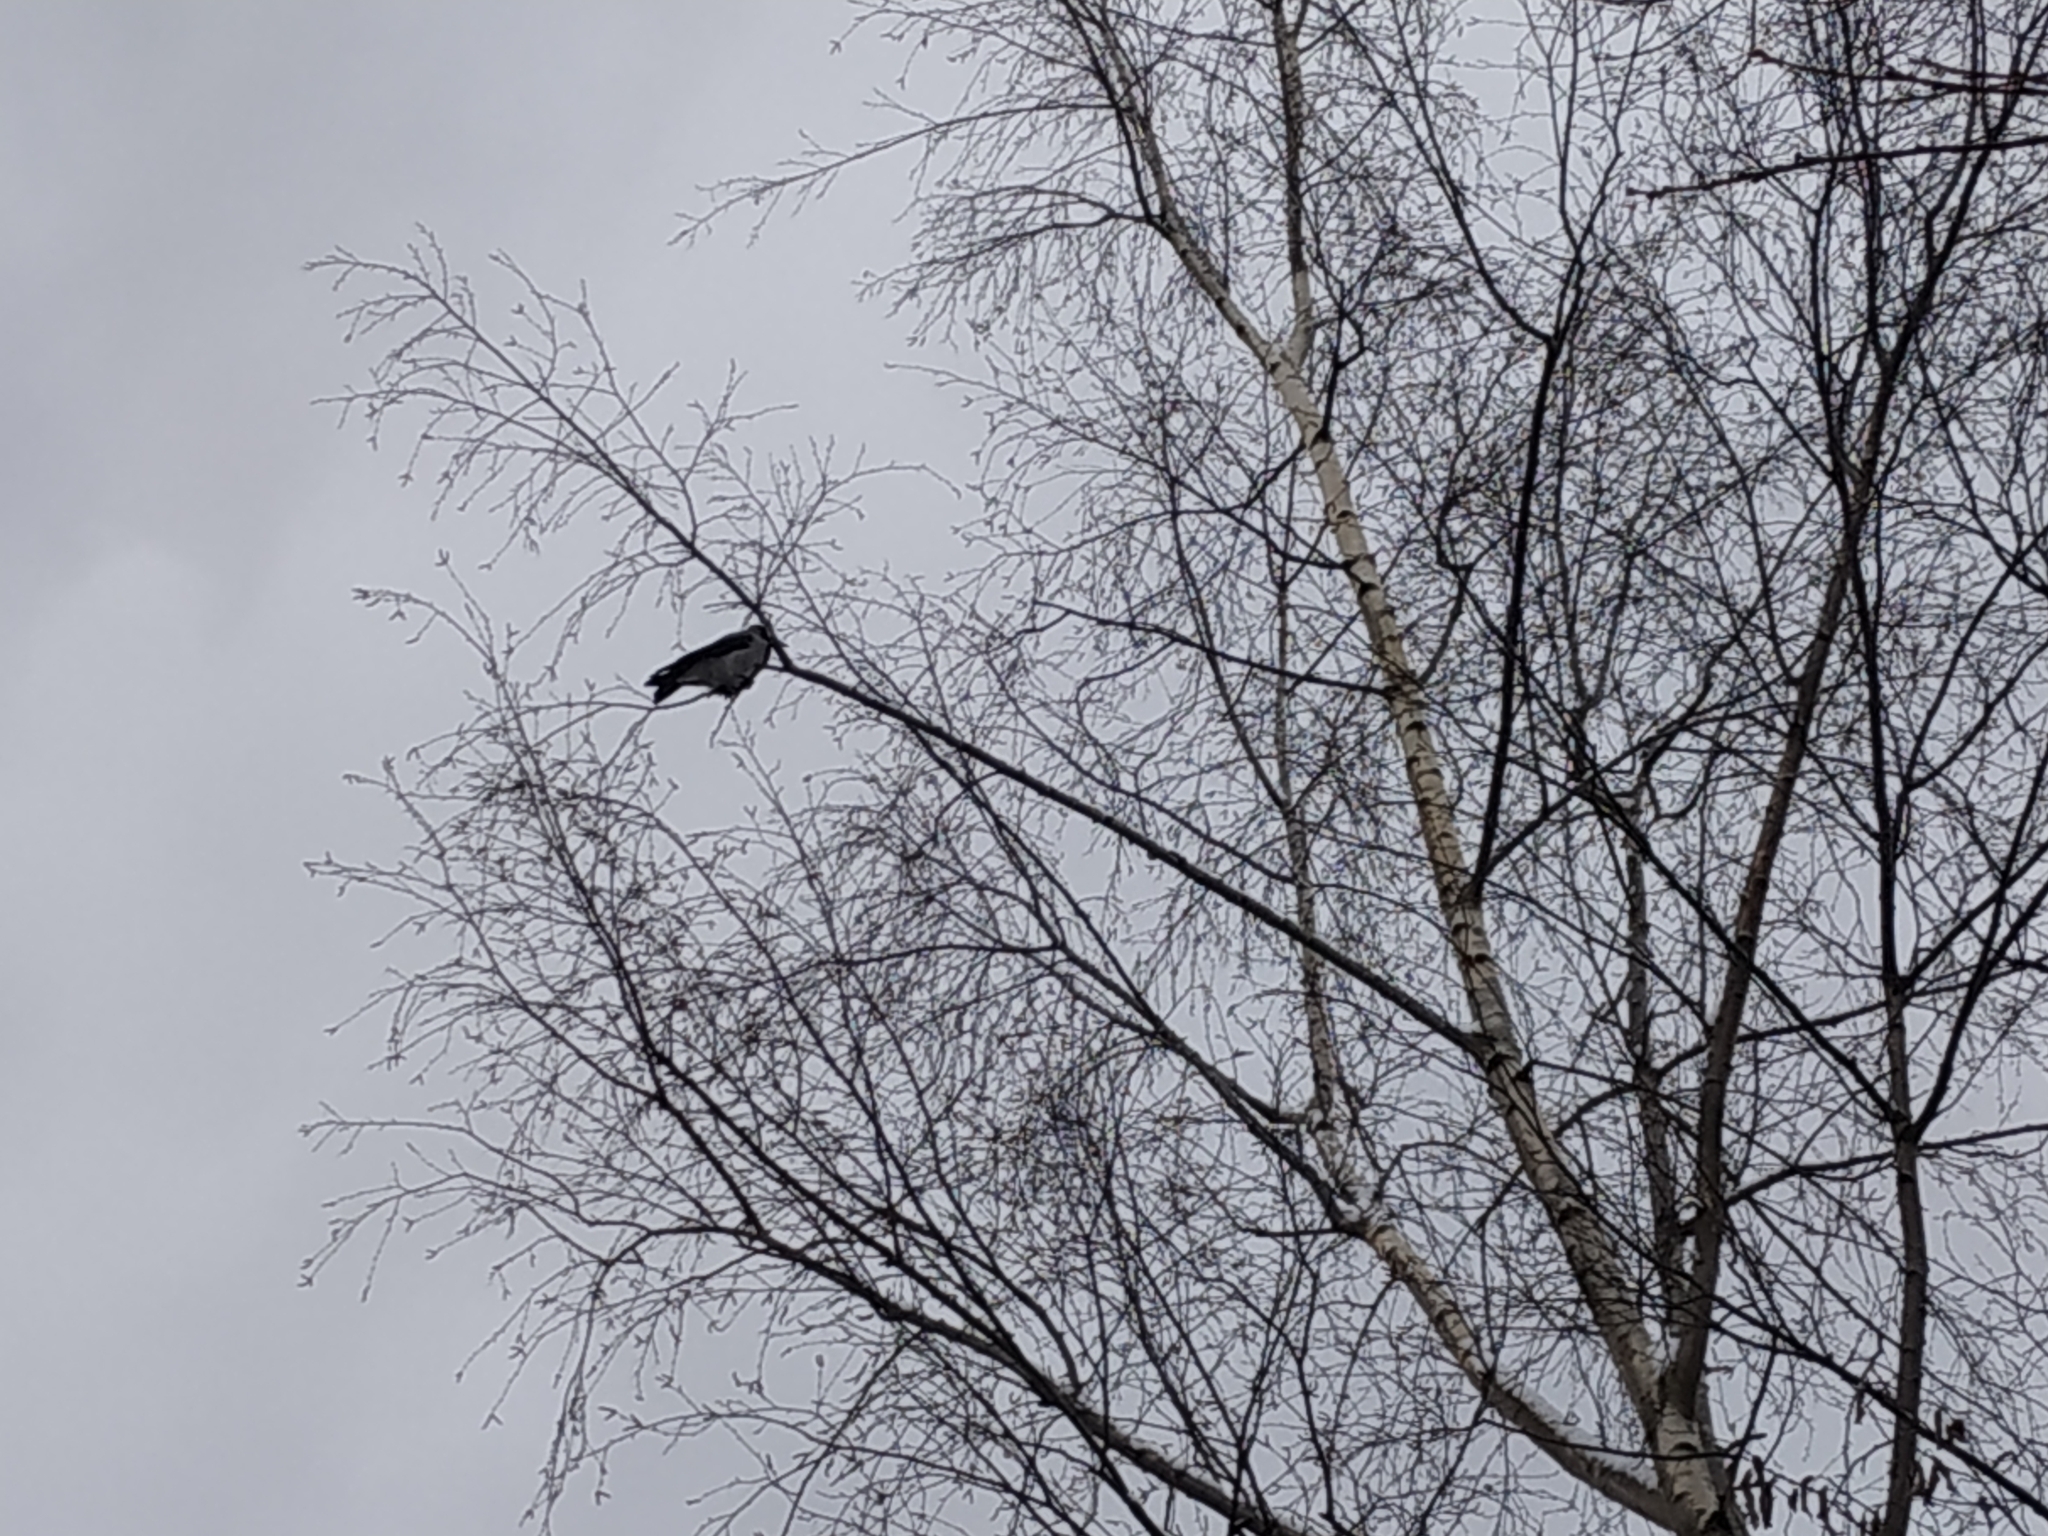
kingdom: Animalia
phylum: Chordata
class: Aves
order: Passeriformes
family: Corvidae
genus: Corvus
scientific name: Corvus cornix
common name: Hooded crow
